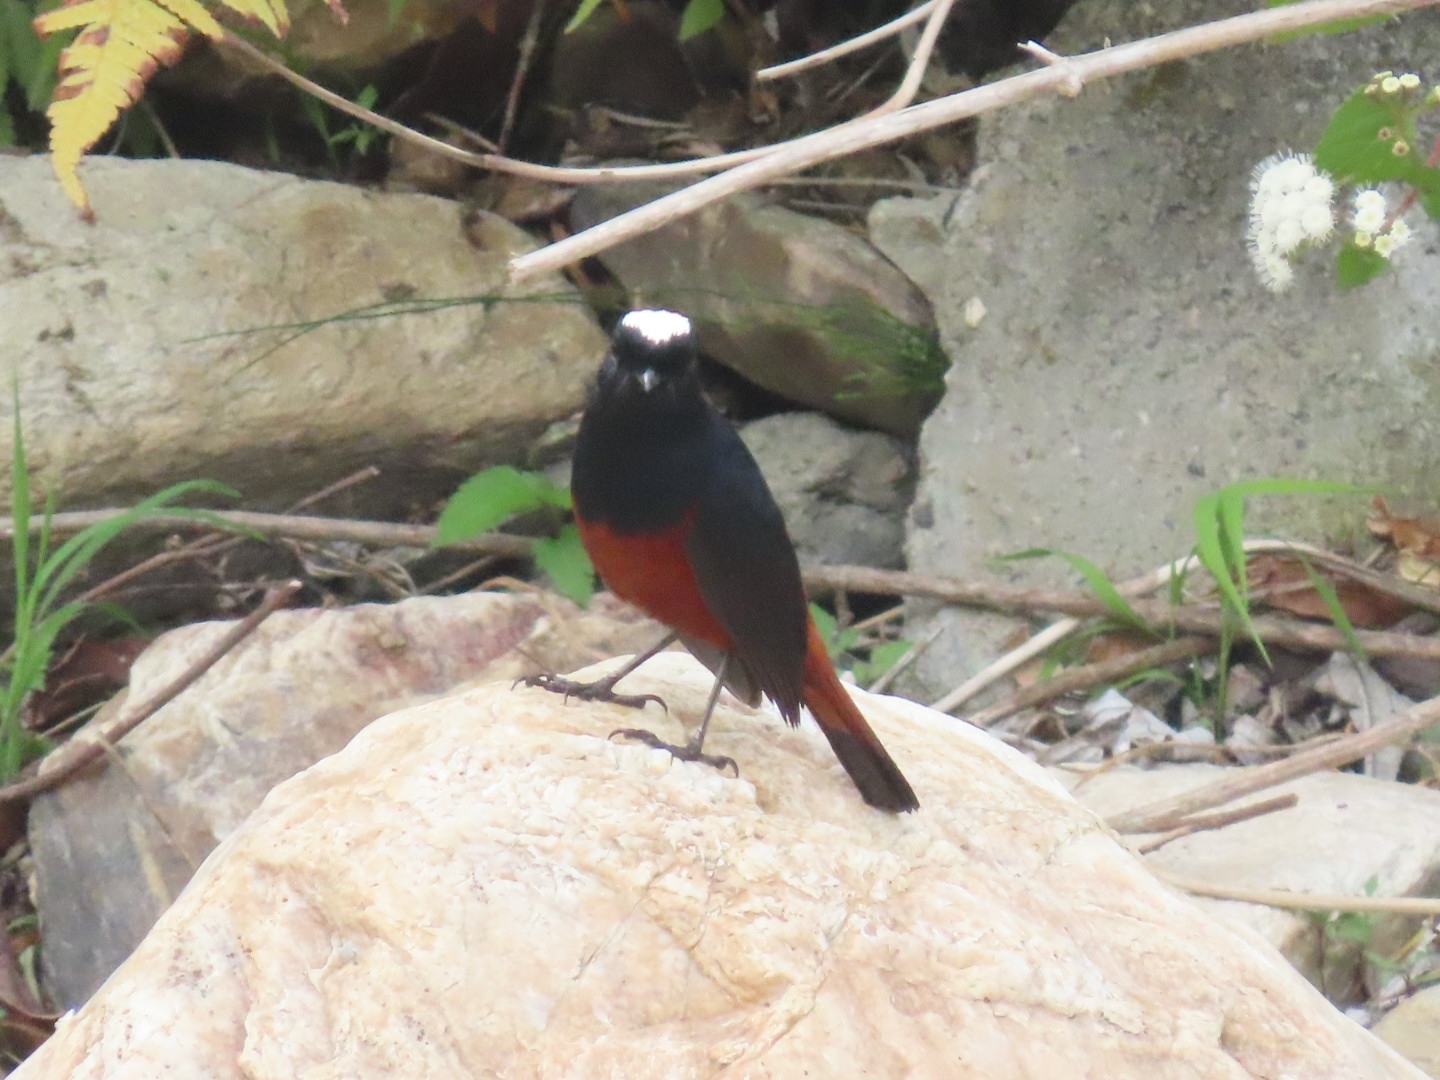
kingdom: Animalia
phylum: Chordata
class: Aves
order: Passeriformes
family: Muscicapidae
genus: Chaimarrornis
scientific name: Chaimarrornis leucocephalus
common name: White-capped redstart
